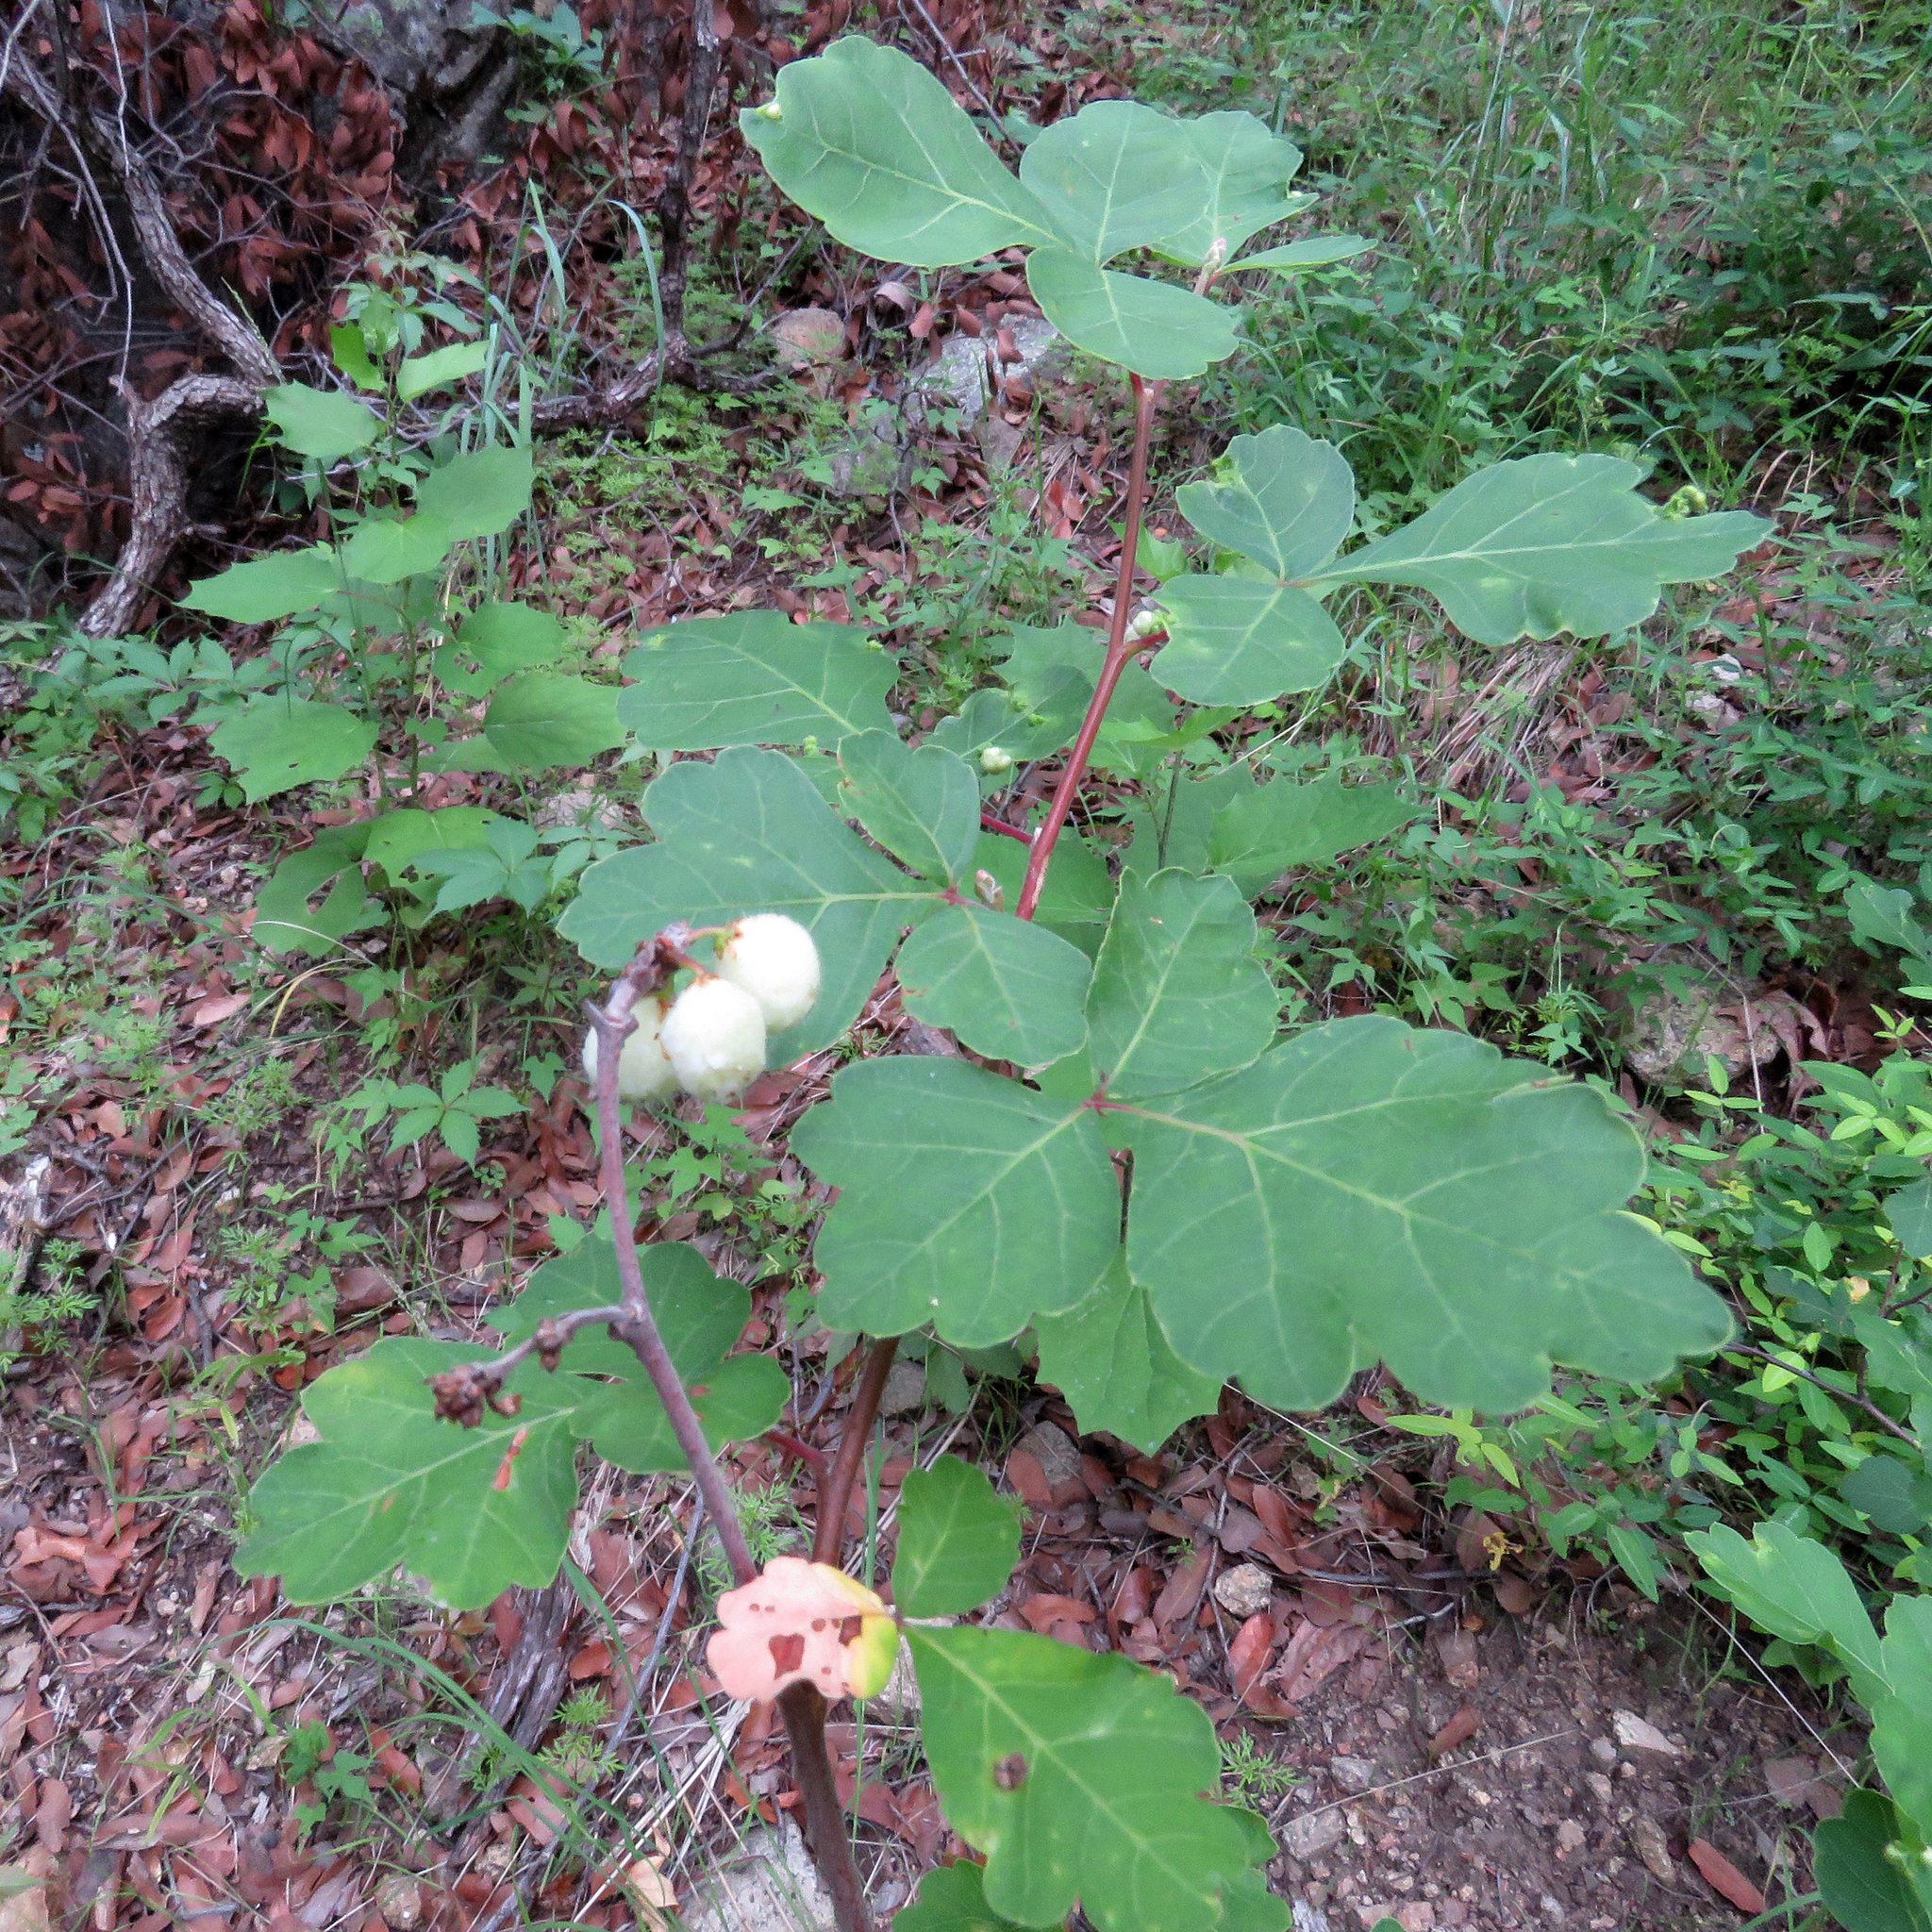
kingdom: Plantae
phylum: Tracheophyta
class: Magnoliopsida
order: Sapindales
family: Anacardiaceae
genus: Rhus
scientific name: Rhus aromatica
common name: Aromatic sumac
